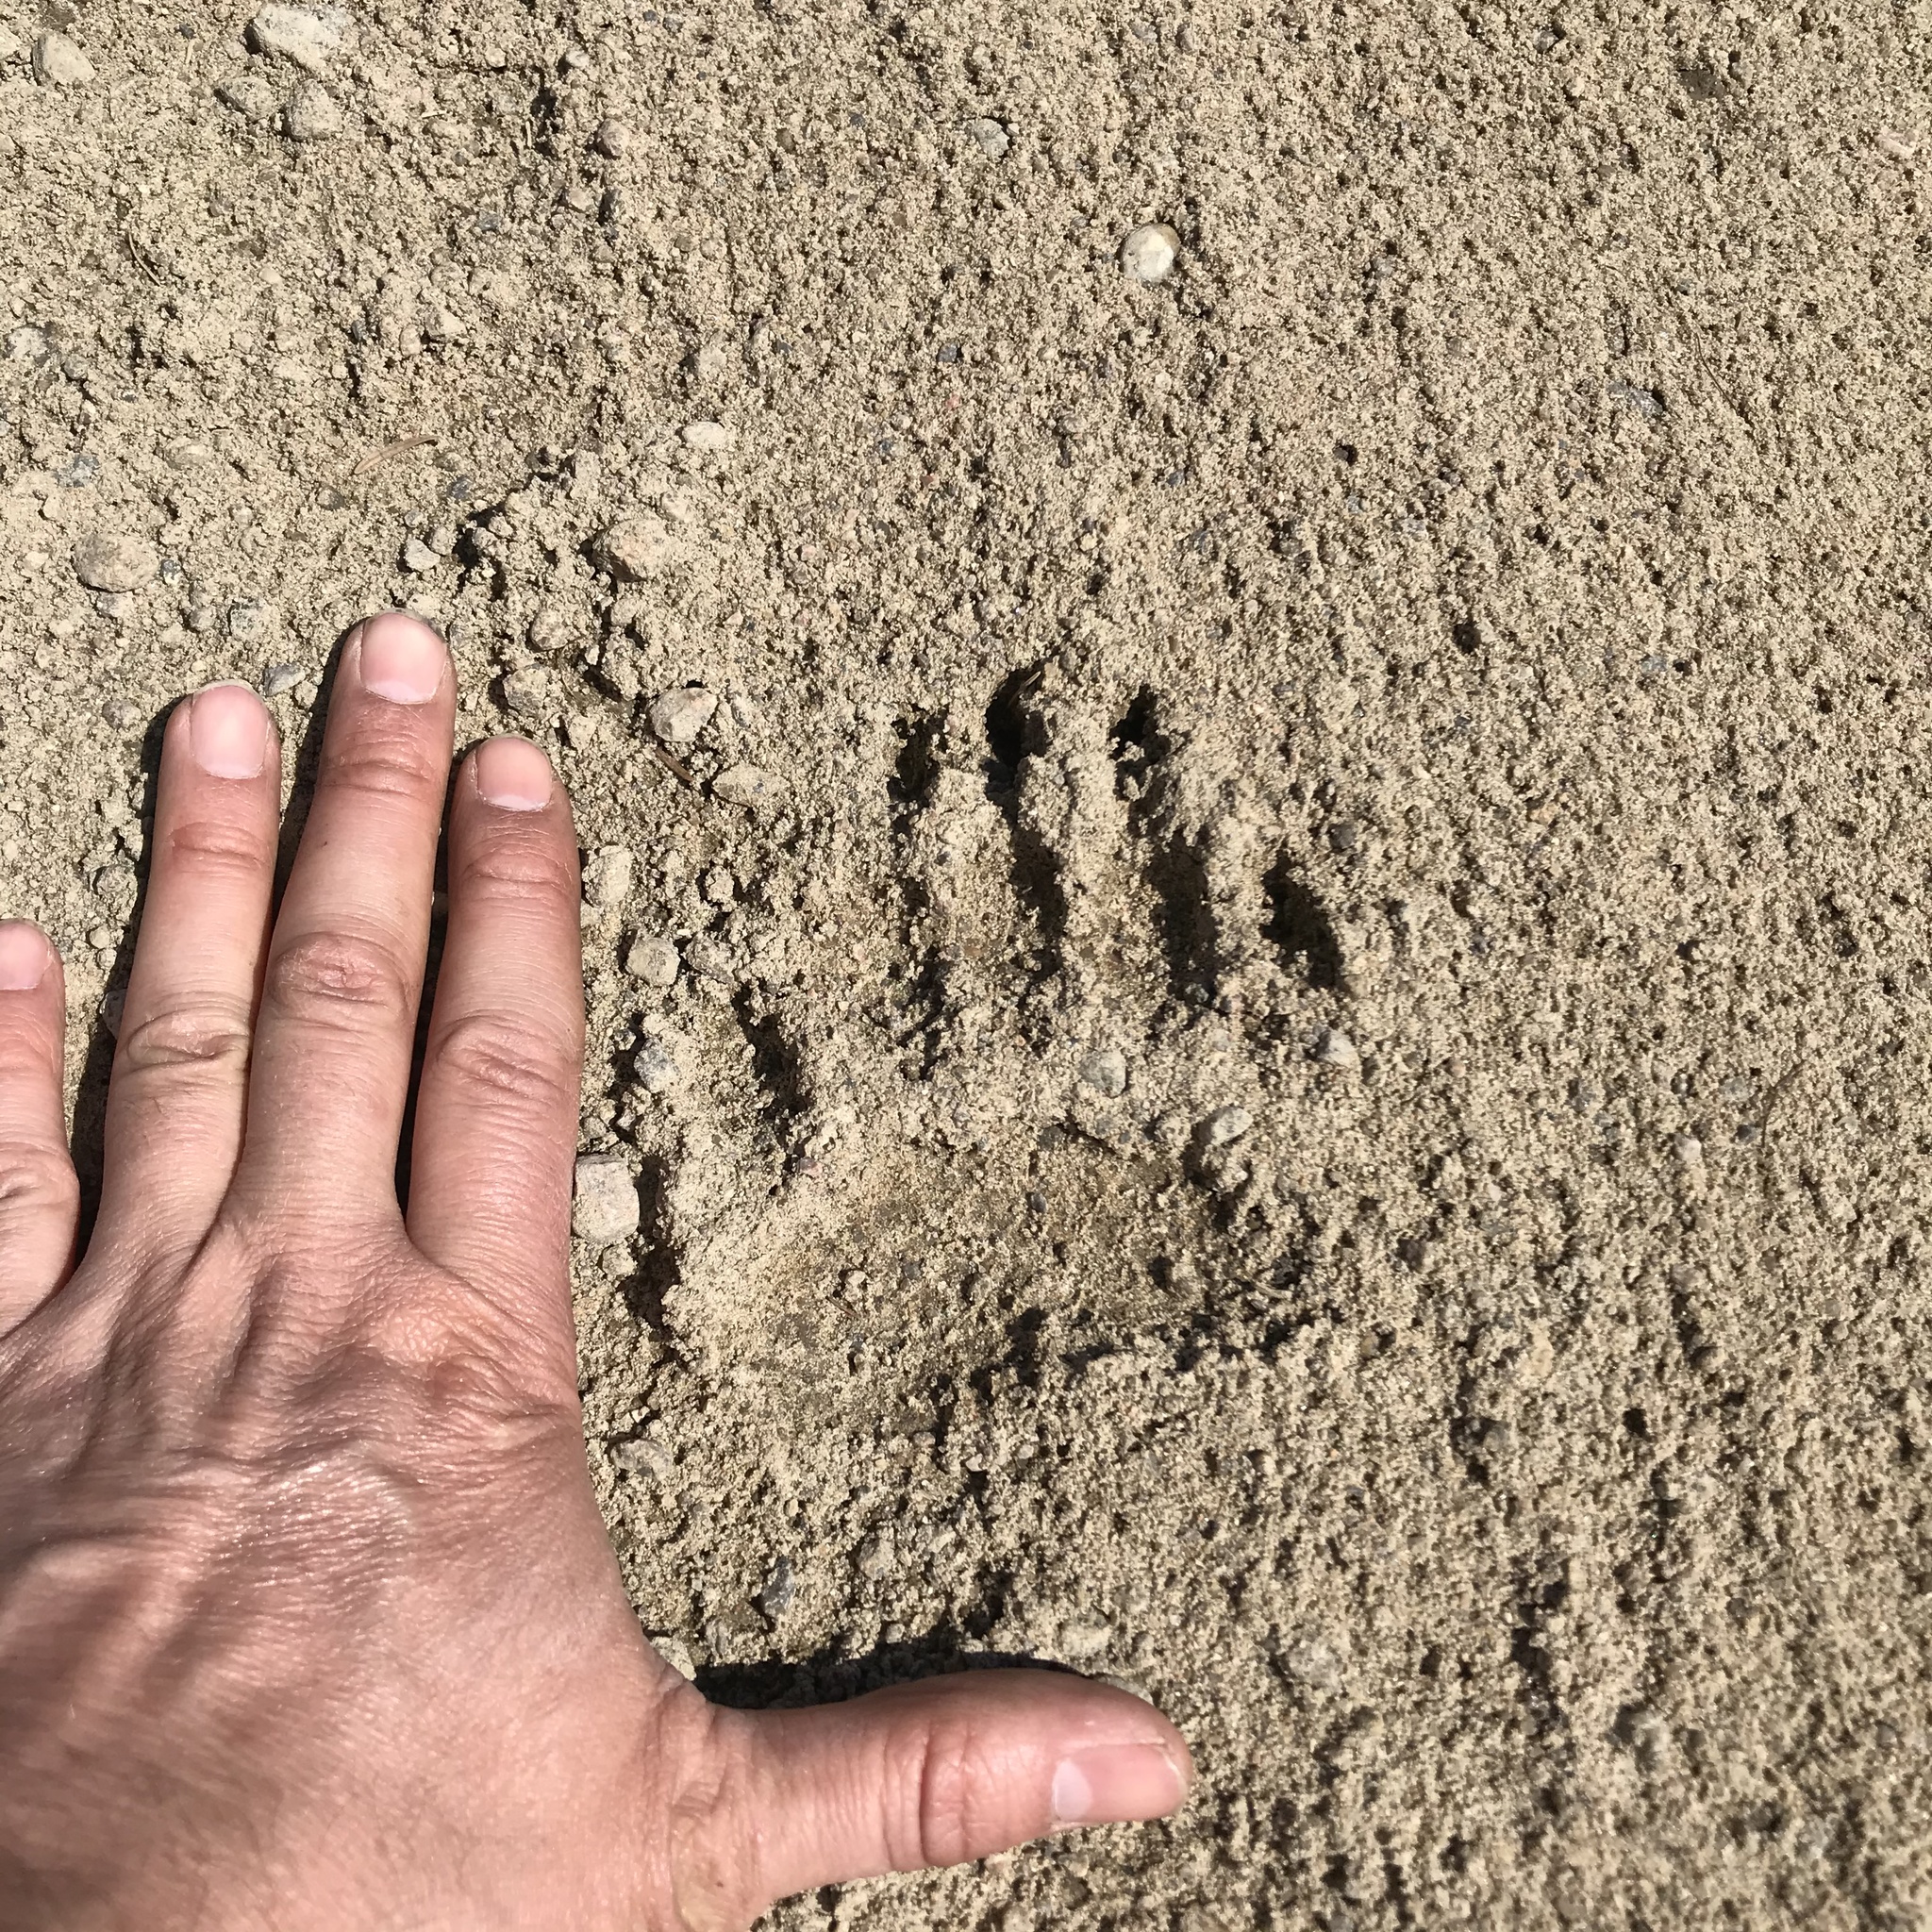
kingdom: Animalia
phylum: Chordata
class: Mammalia
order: Carnivora
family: Ursidae
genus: Ursus
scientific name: Ursus americanus
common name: American black bear
